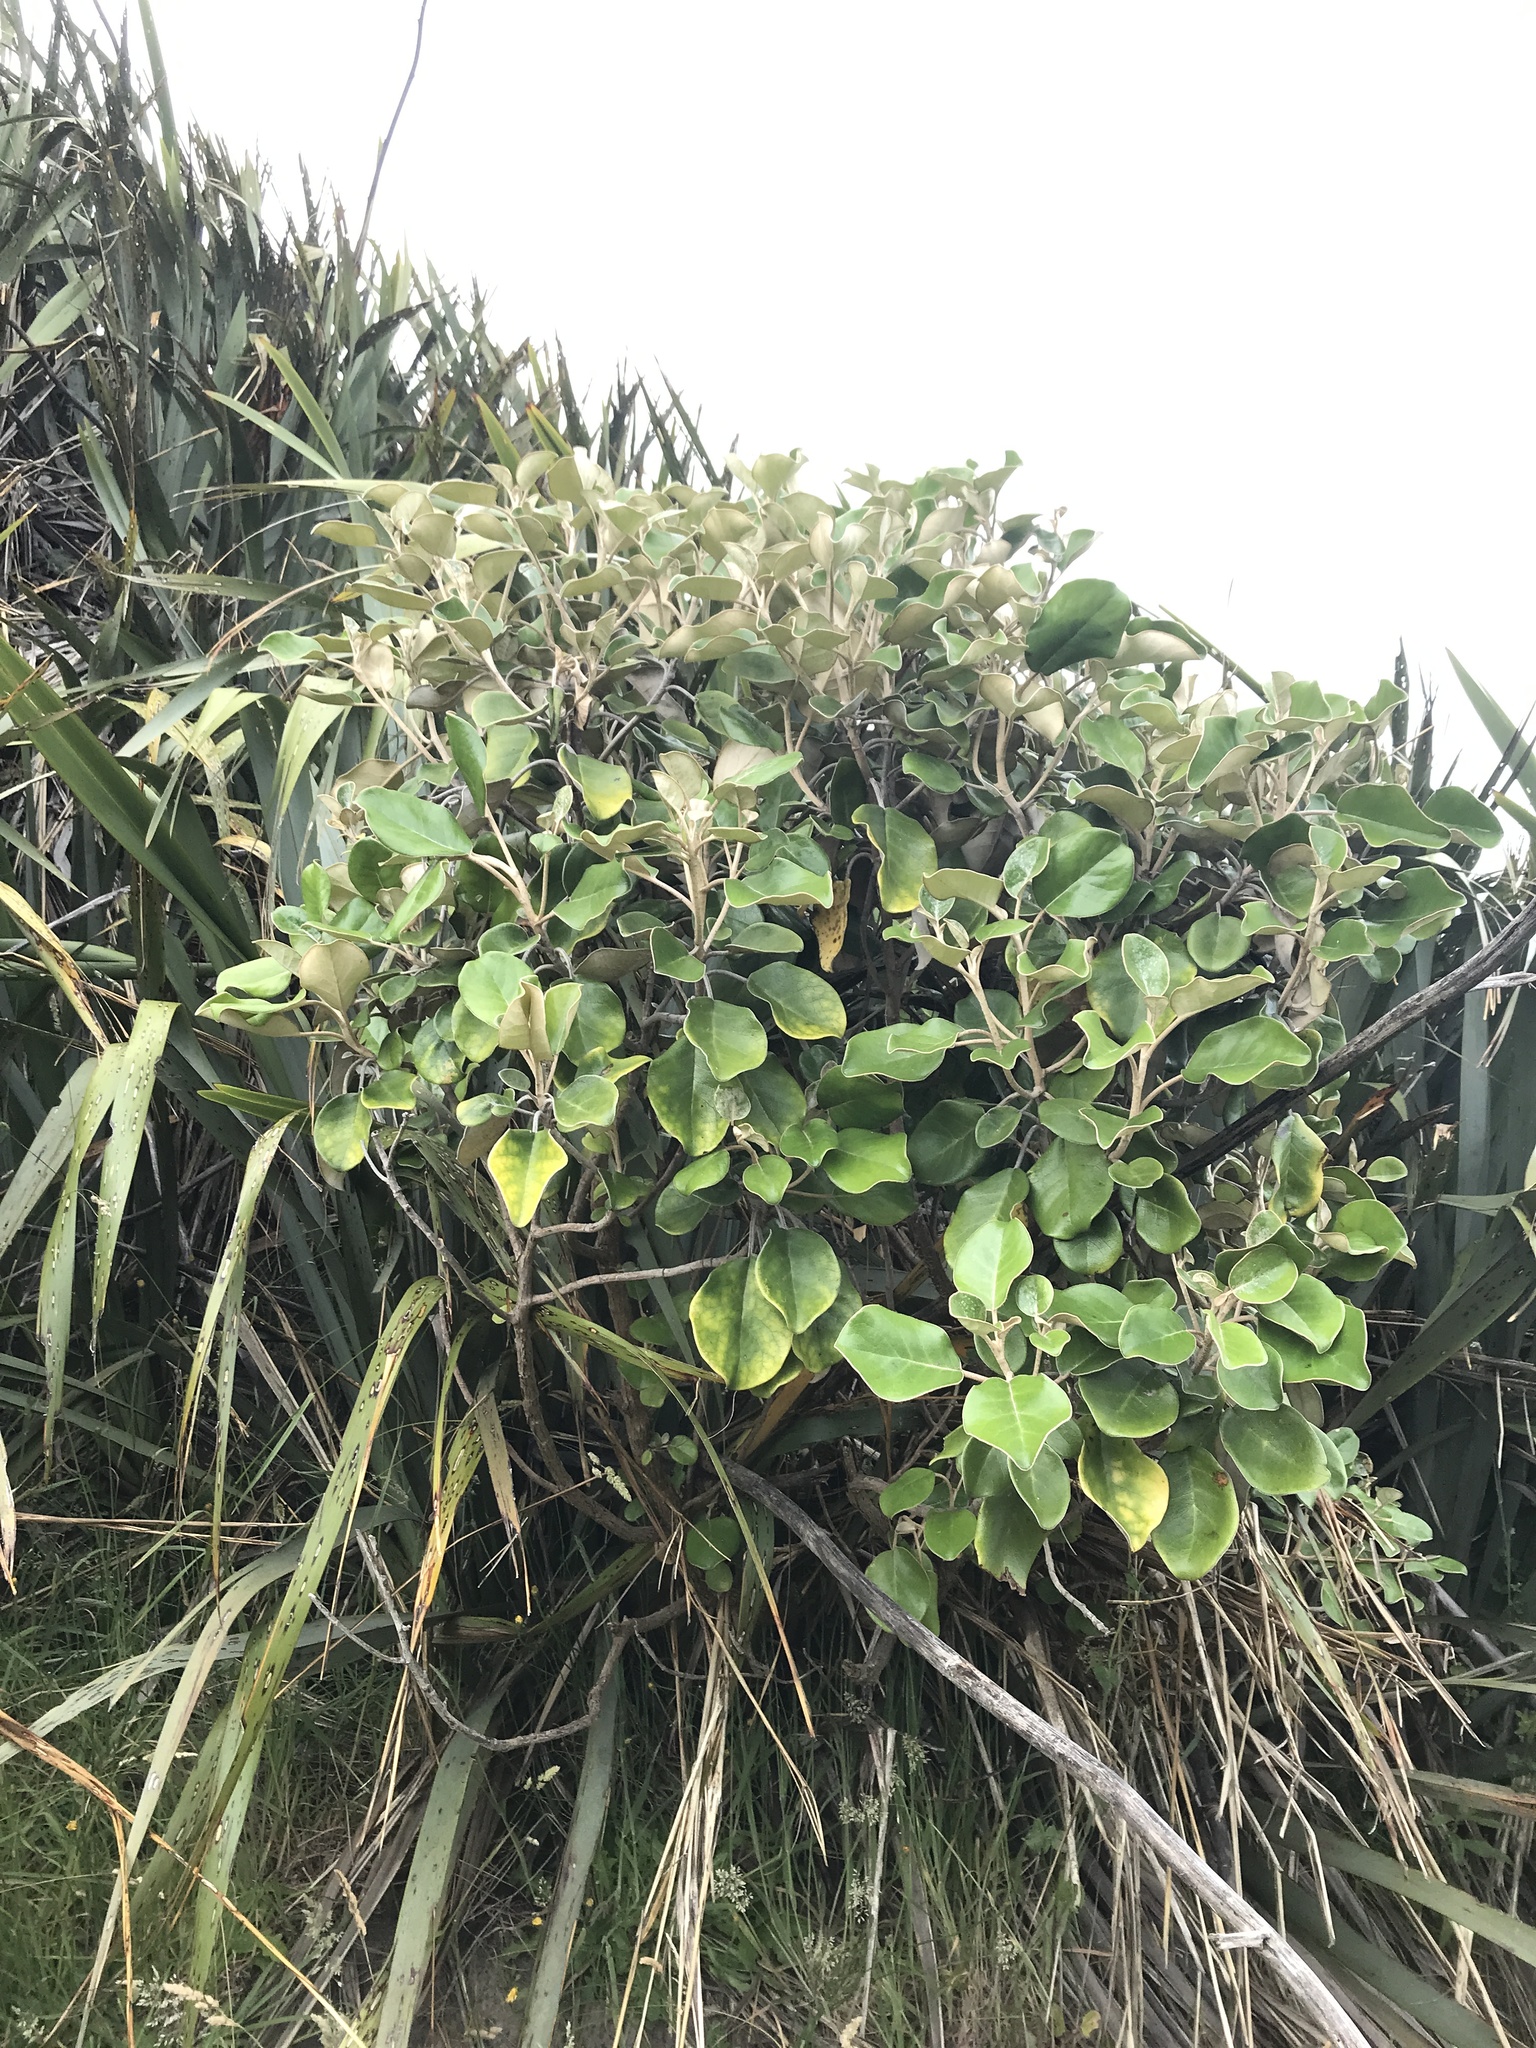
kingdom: Plantae
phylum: Tracheophyta
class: Magnoliopsida
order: Asterales
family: Asteraceae
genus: Brachyglottis
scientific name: Brachyglottis rotundifolia
